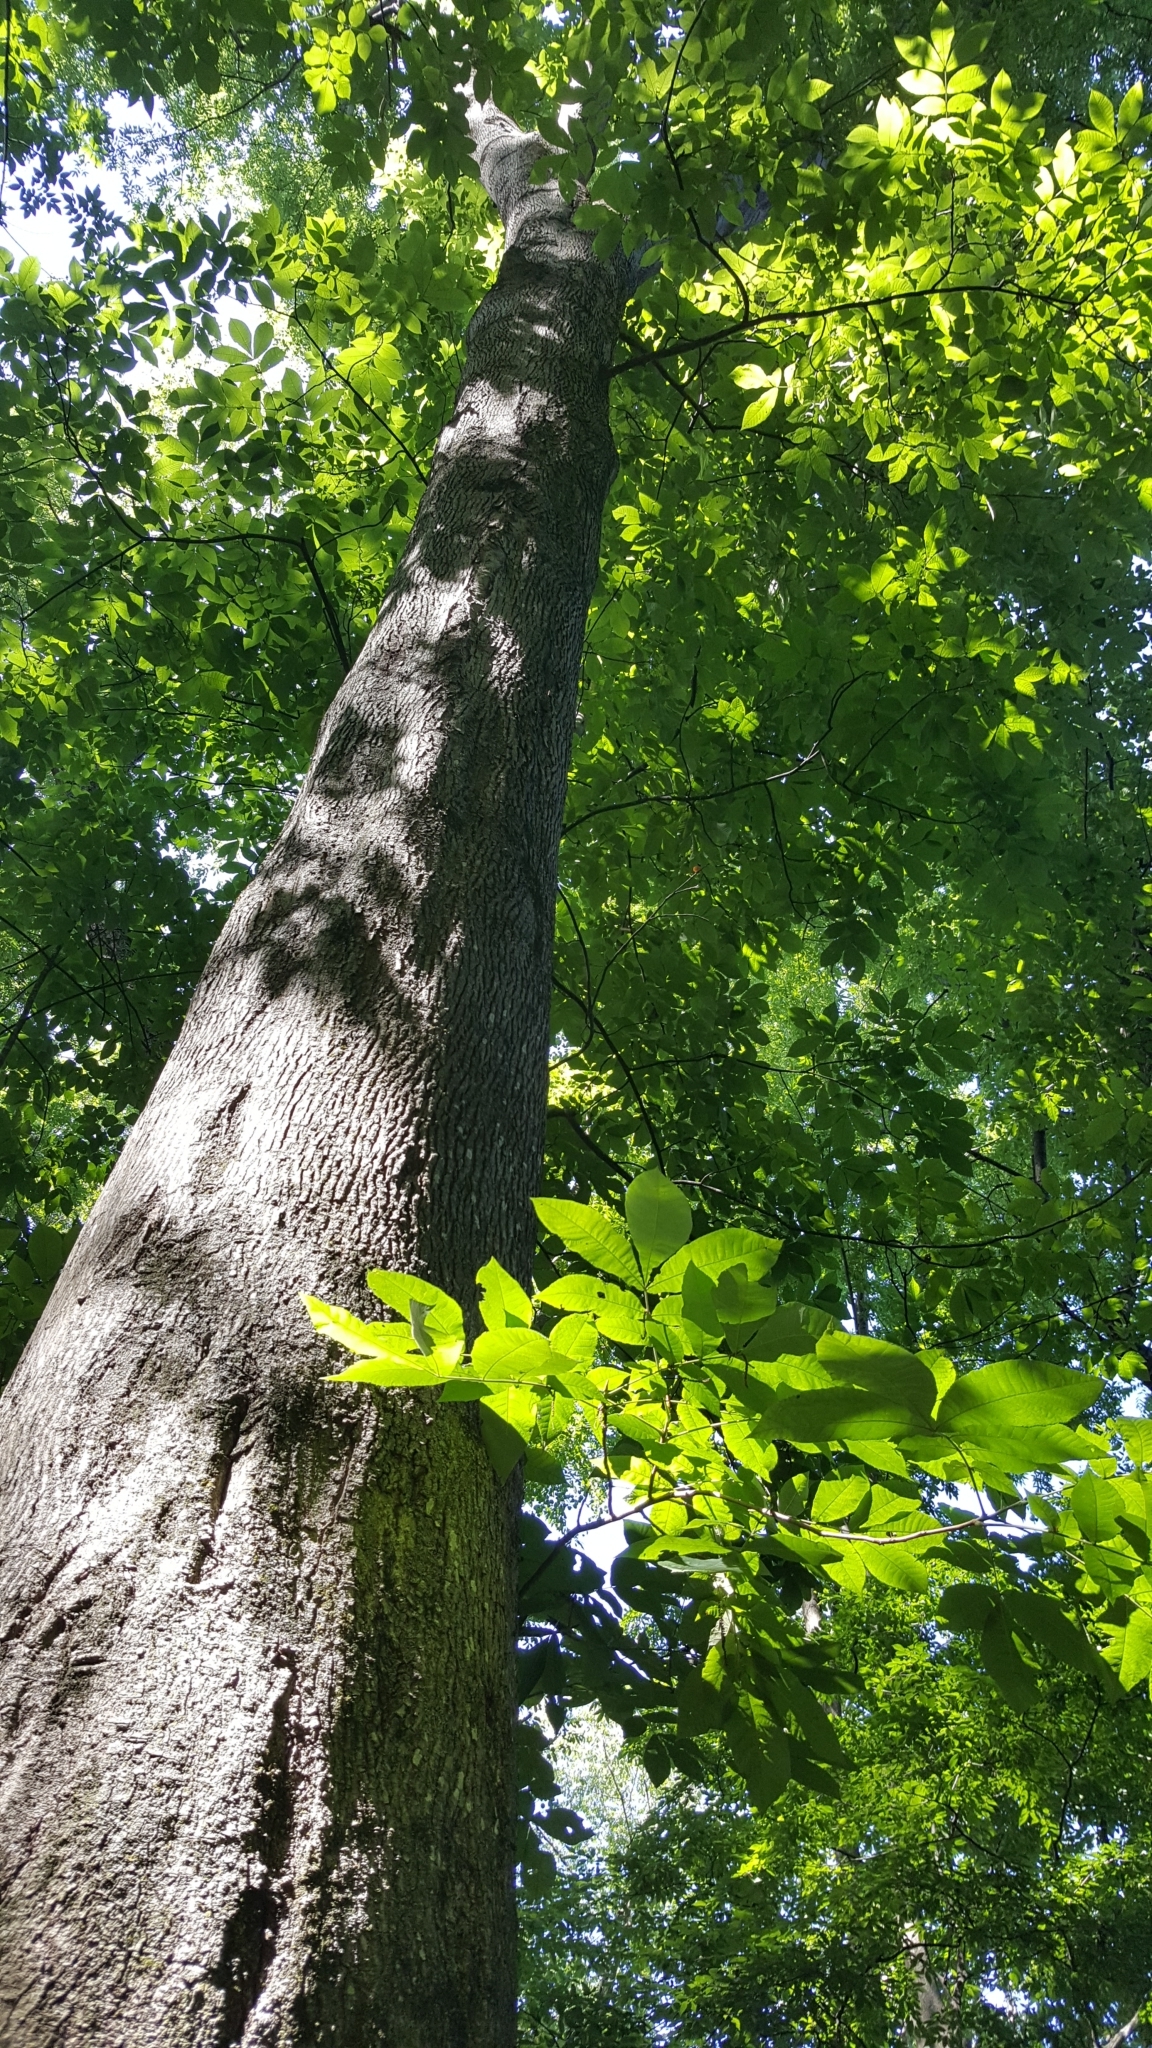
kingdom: Plantae
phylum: Tracheophyta
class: Magnoliopsida
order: Fagales
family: Juglandaceae
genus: Carya
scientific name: Carya cordiformis
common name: Bitternut hickory
